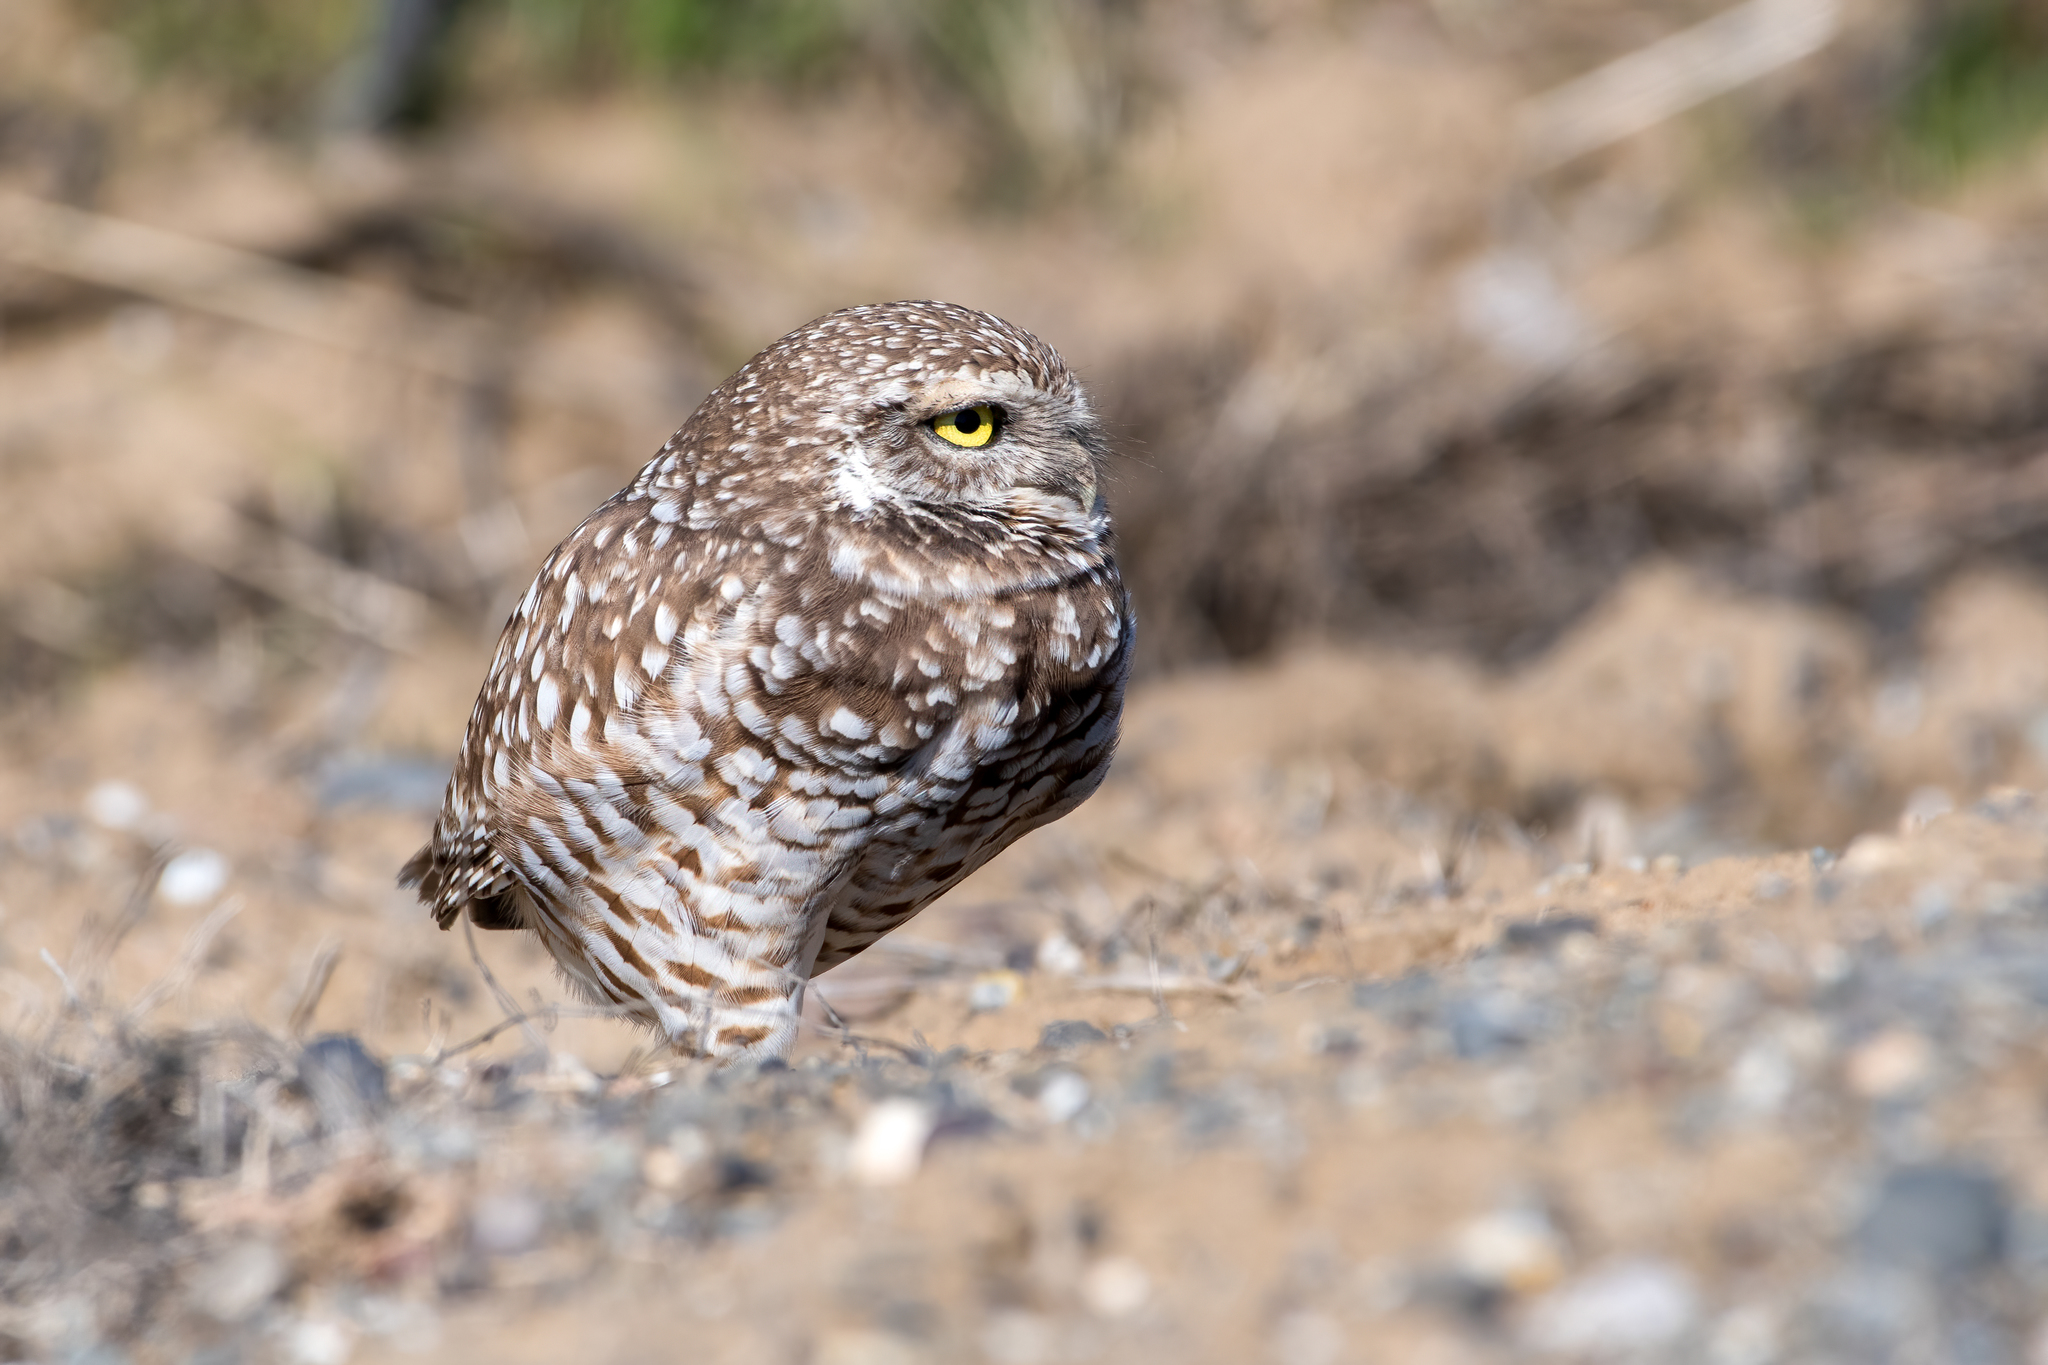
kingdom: Animalia
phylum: Chordata
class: Aves
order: Strigiformes
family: Strigidae
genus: Athene
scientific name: Athene cunicularia
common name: Burrowing owl
